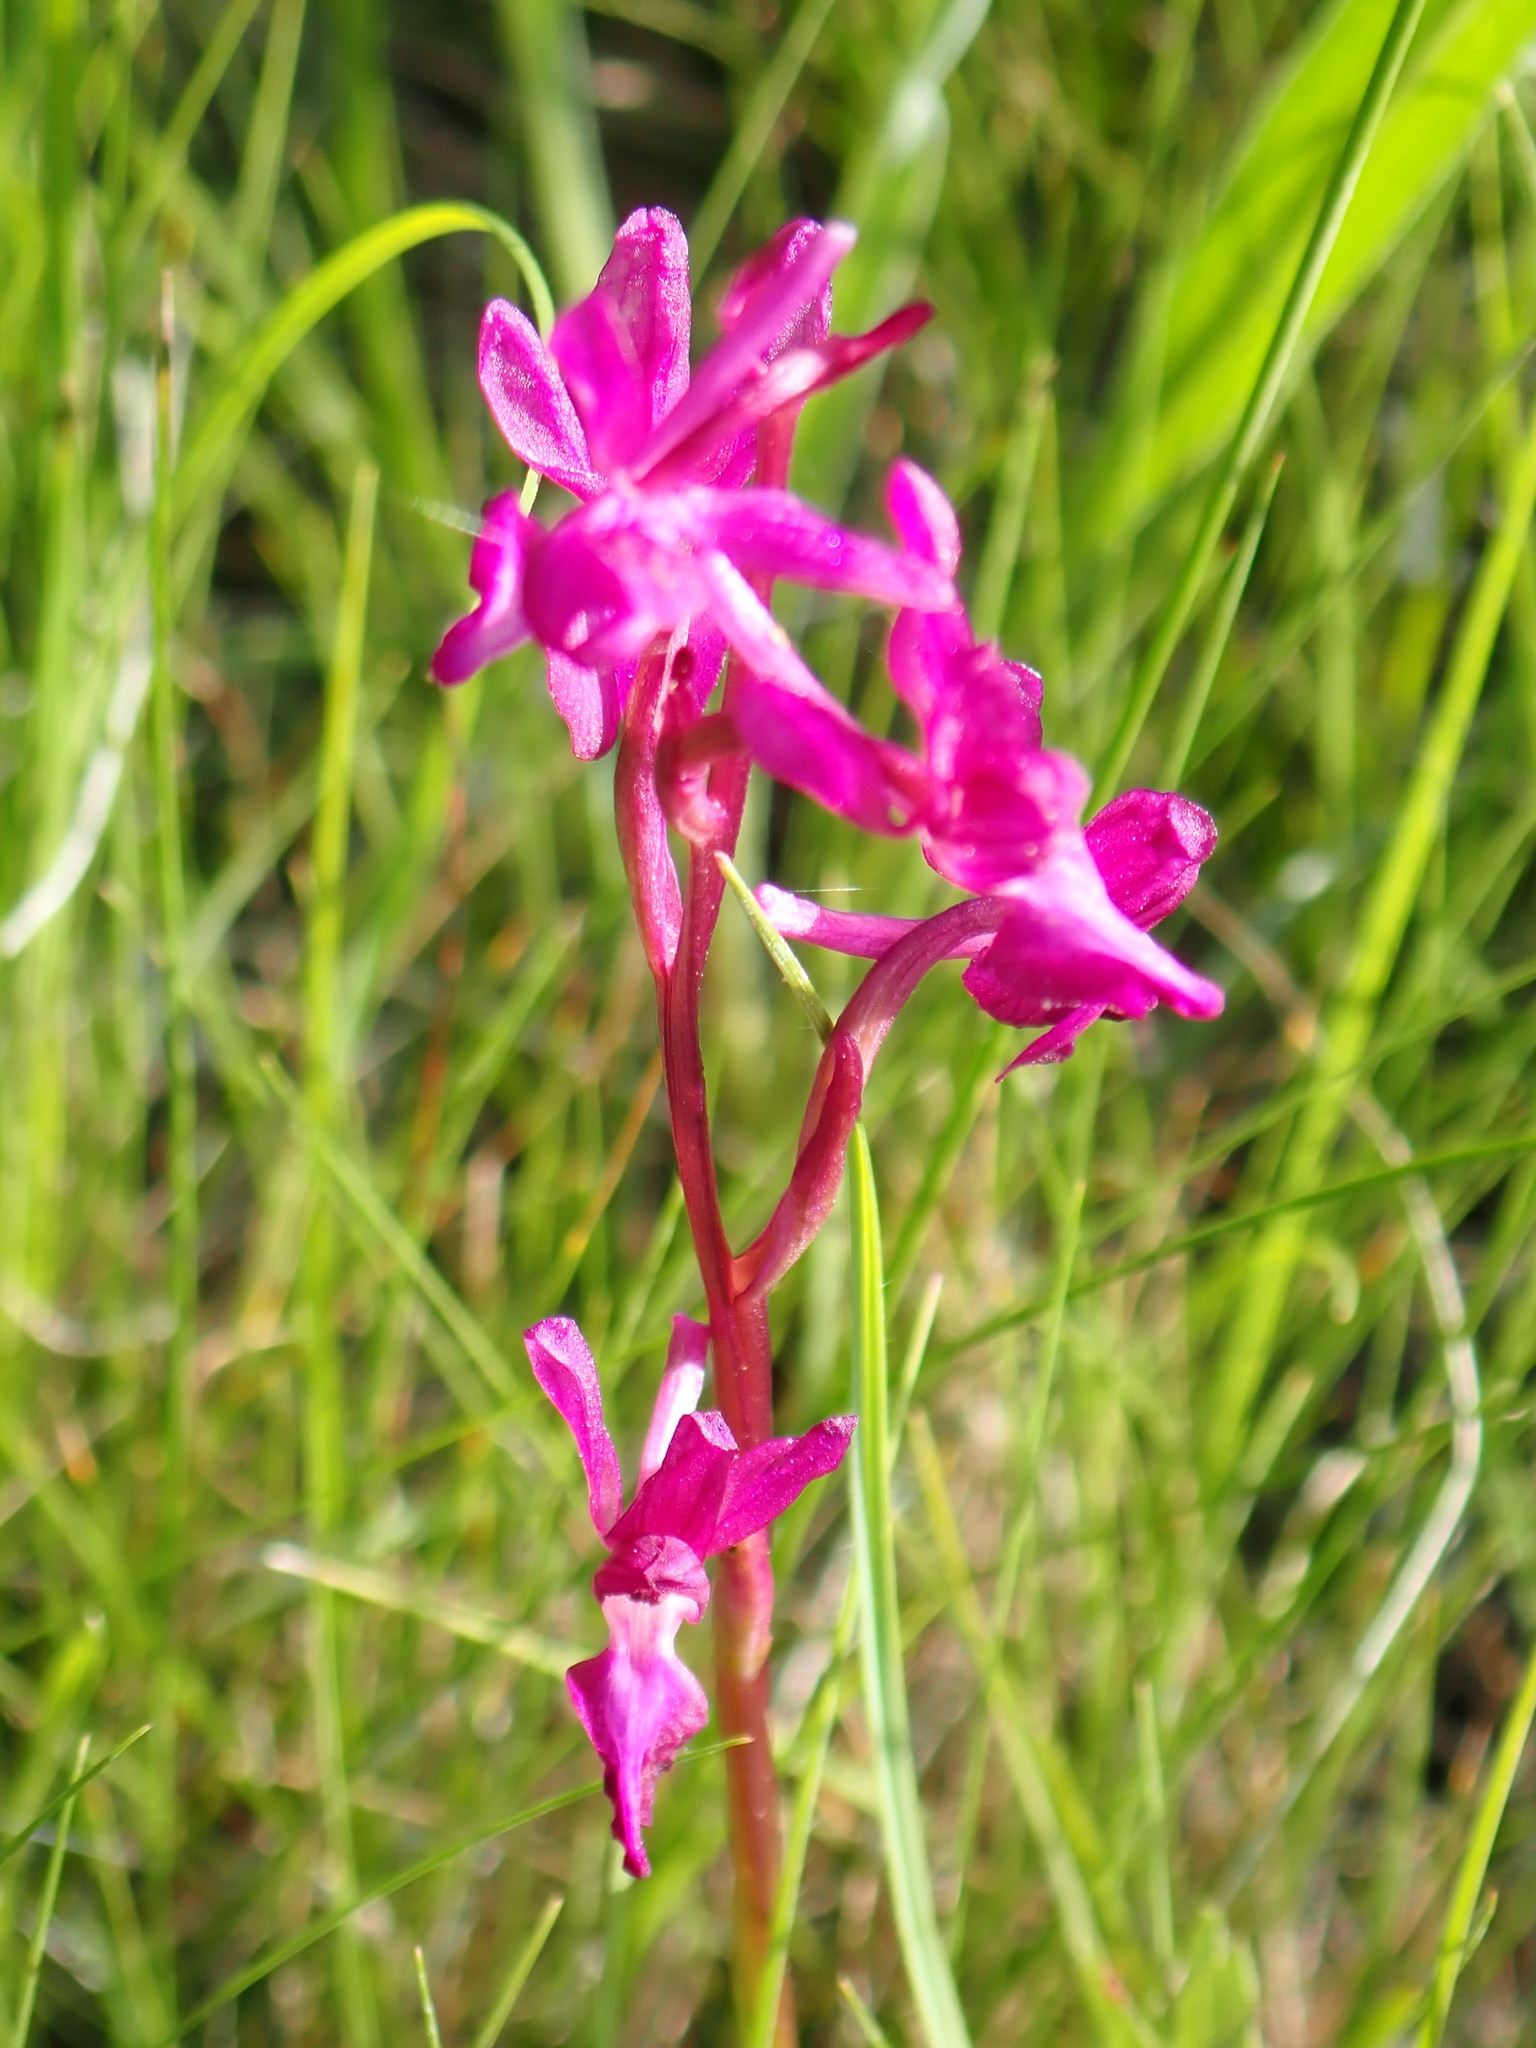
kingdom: Plantae
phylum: Tracheophyta
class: Liliopsida
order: Asparagales
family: Orchidaceae
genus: Anacamptis
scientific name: Anacamptis laxiflora
